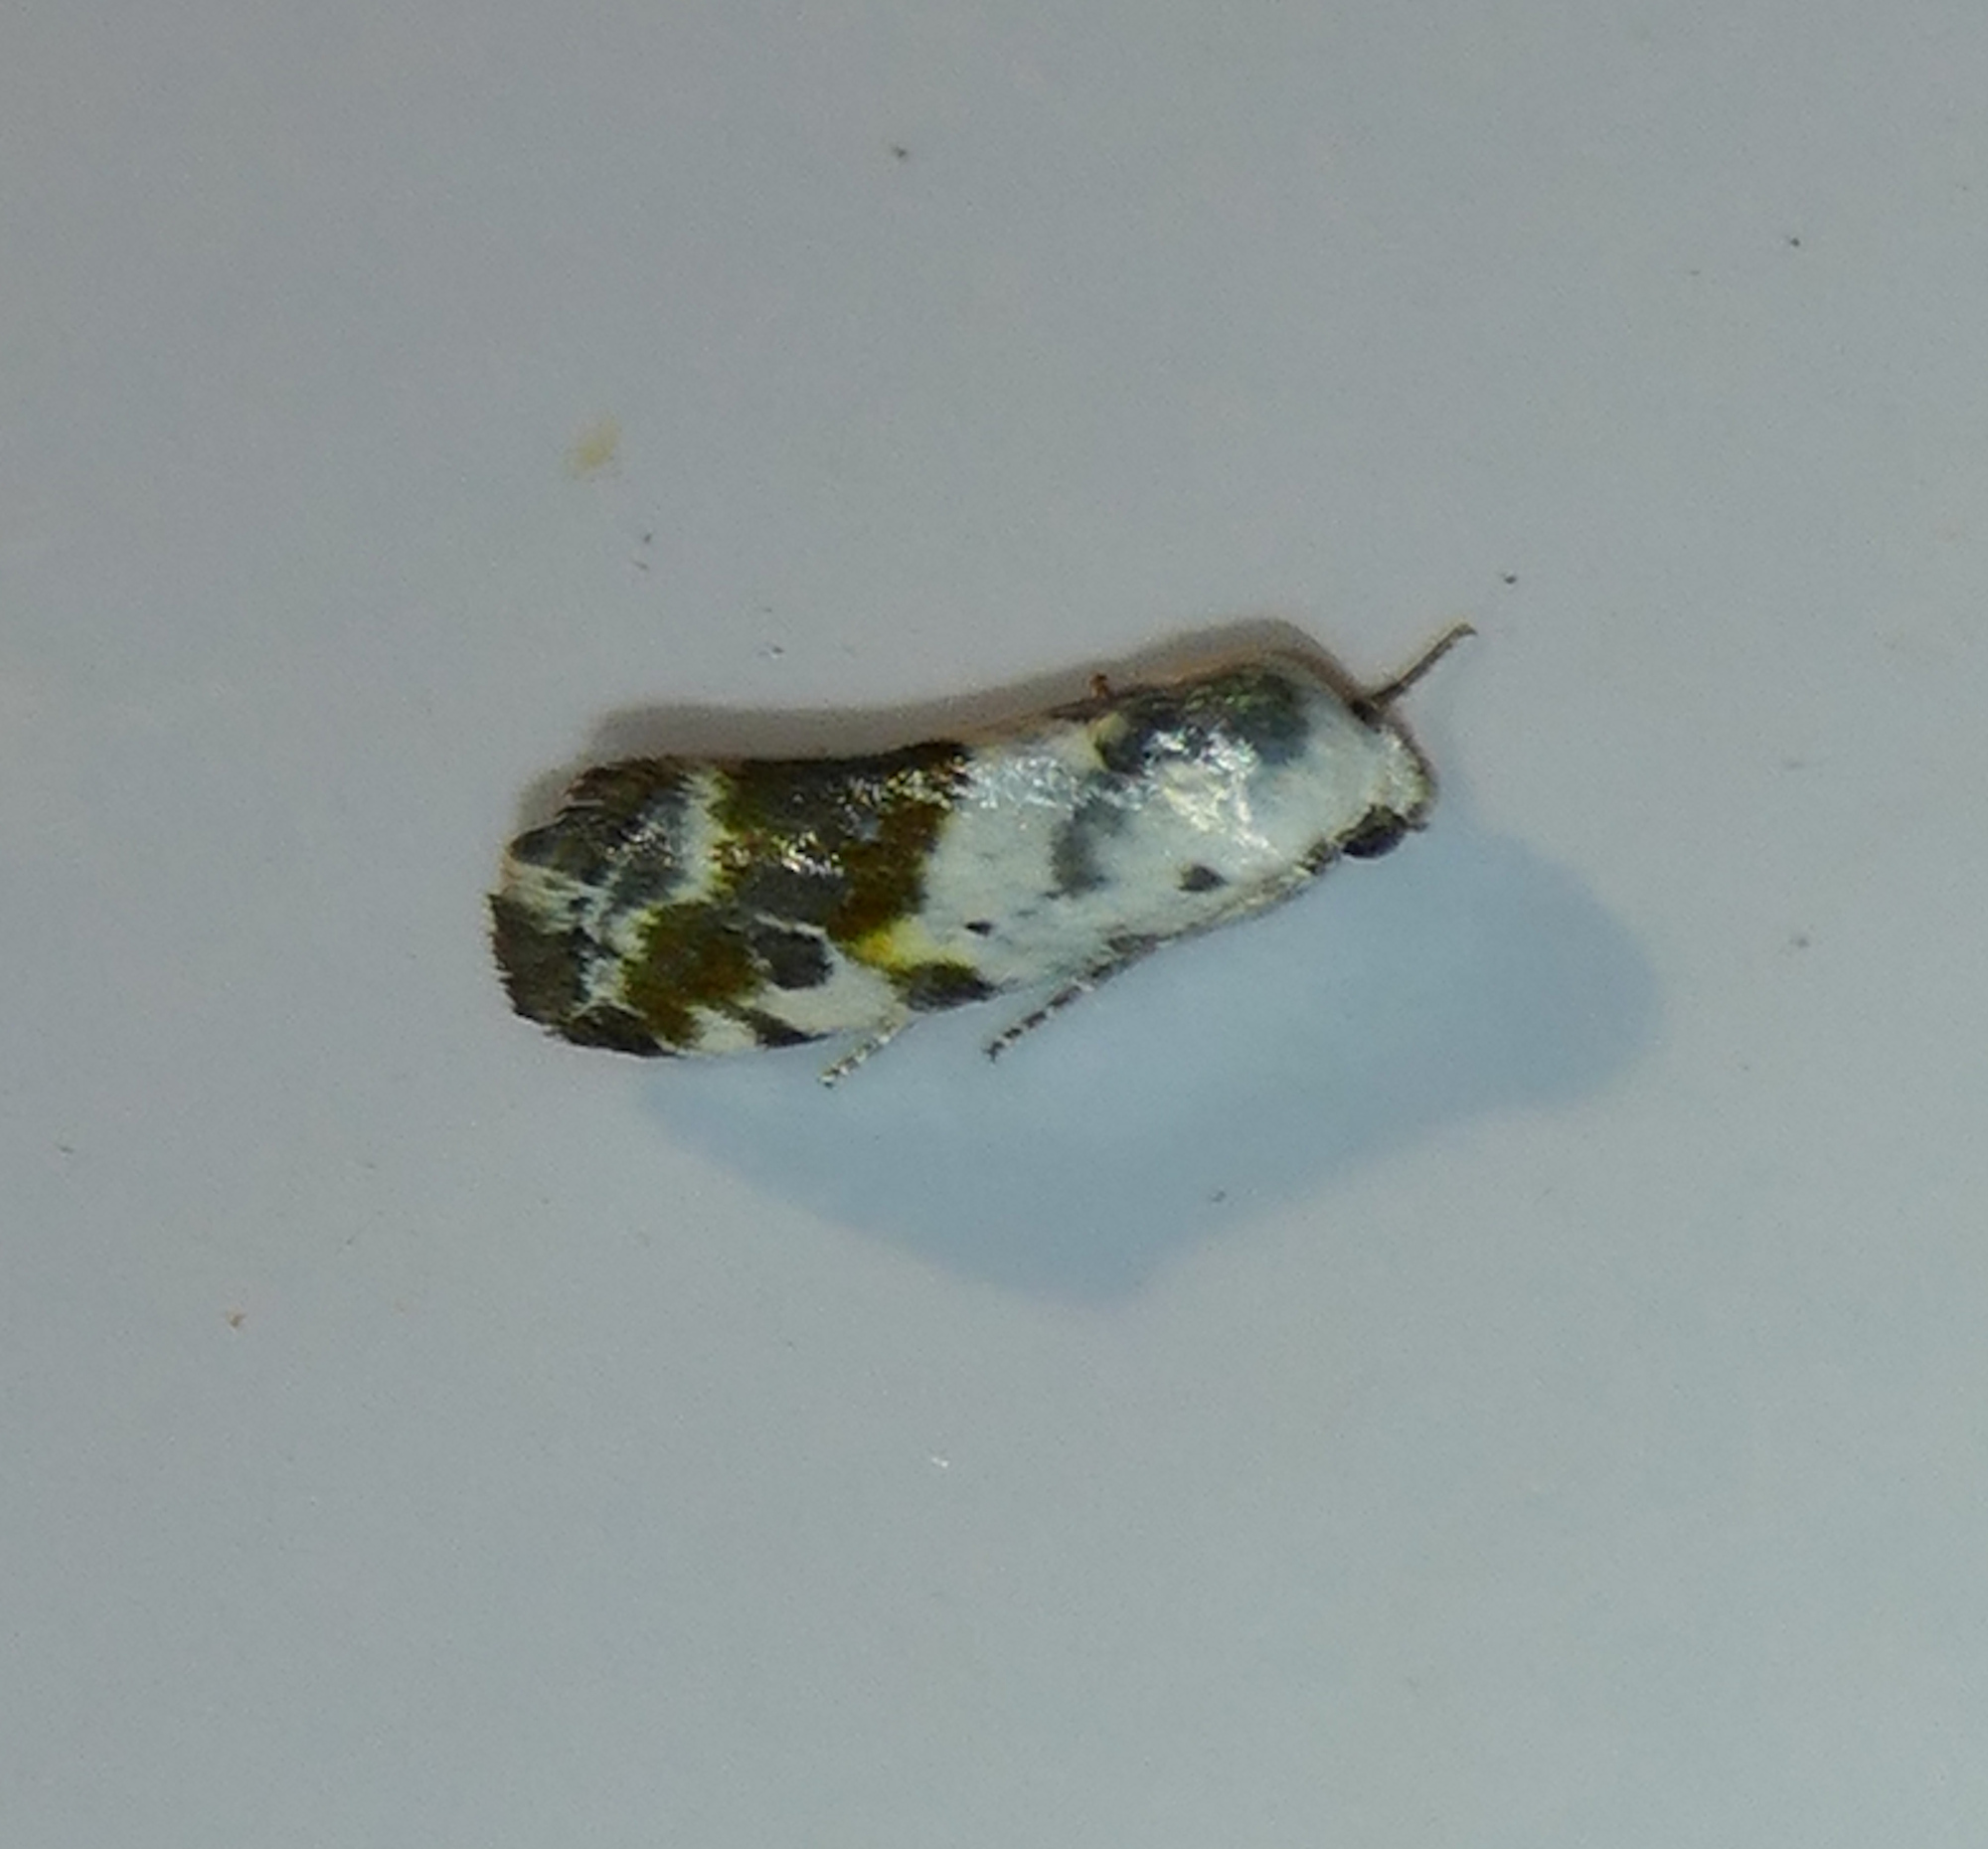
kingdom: Animalia
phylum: Arthropoda
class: Insecta
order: Lepidoptera
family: Noctuidae
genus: Acontia
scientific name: Acontia candefacta
